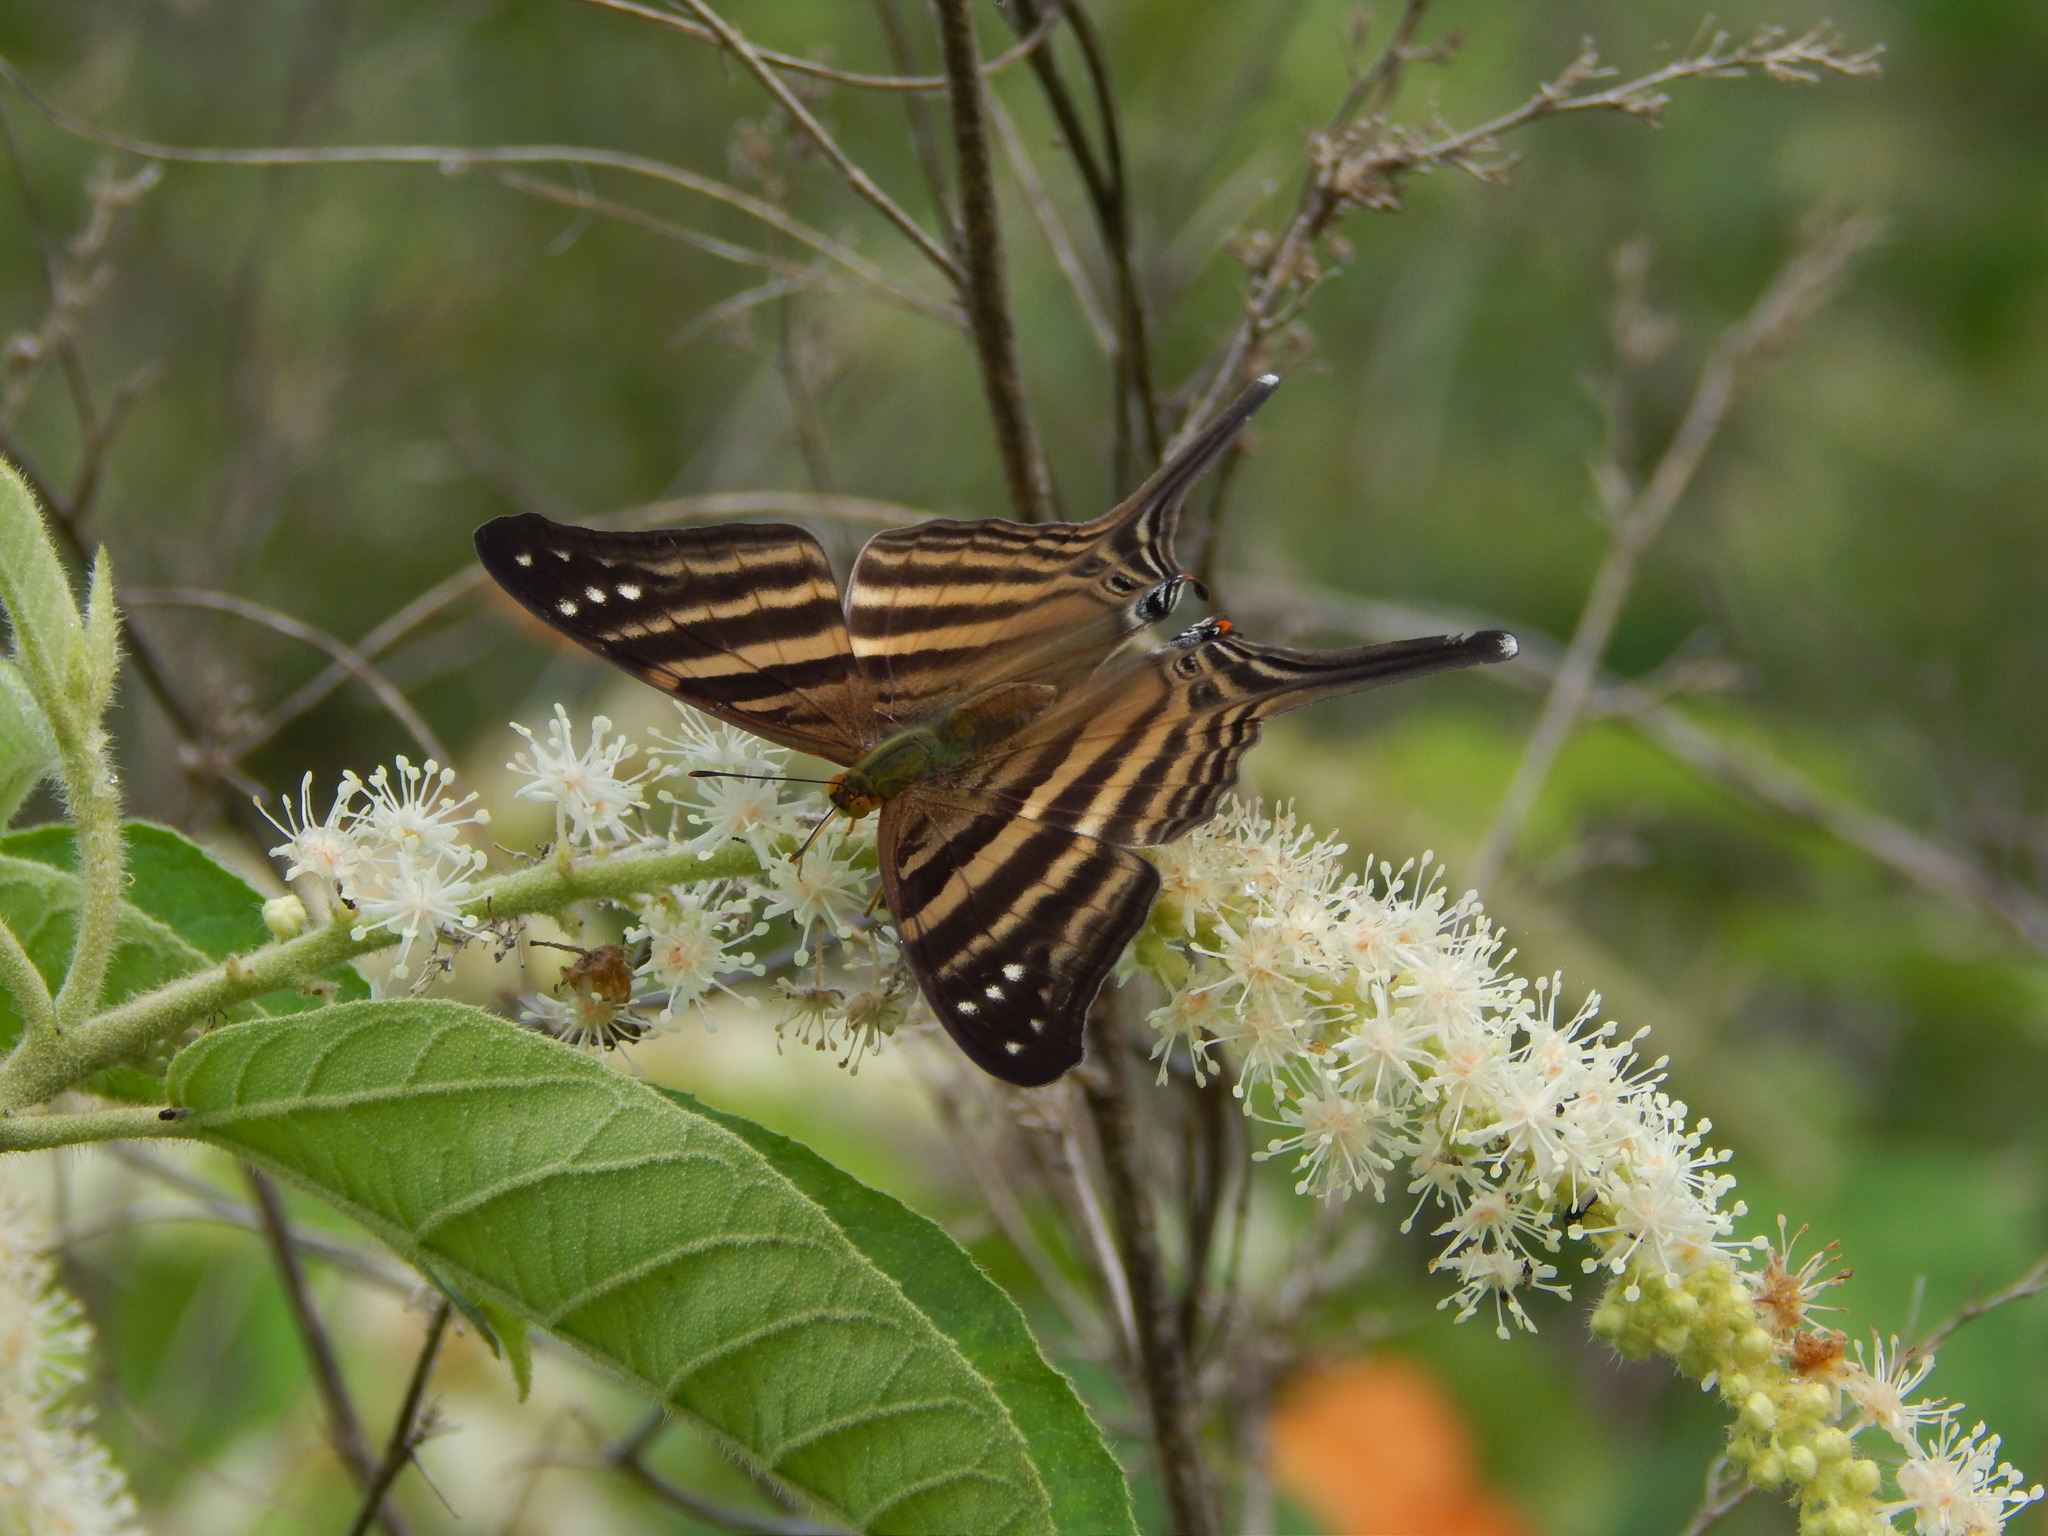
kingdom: Animalia
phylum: Arthropoda
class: Insecta
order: Lepidoptera
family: Nymphalidae
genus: Marpesia
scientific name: Marpesia chiron
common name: Many-banded daggerwing
